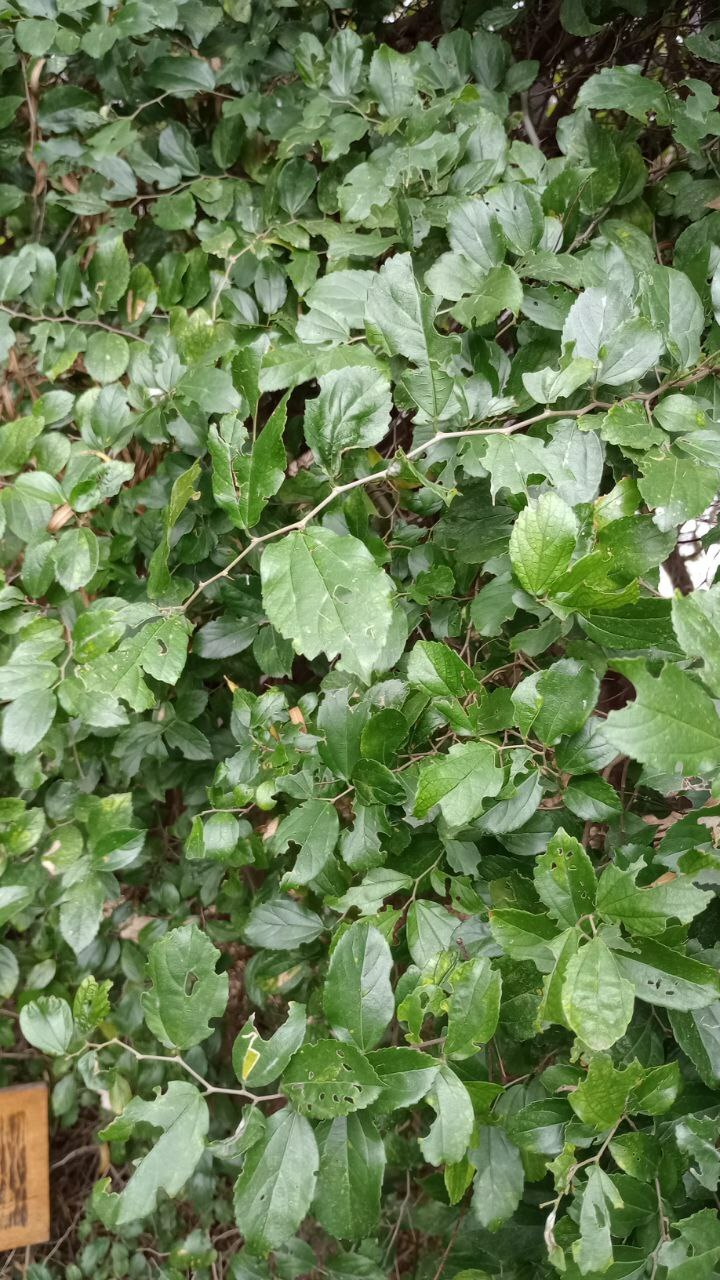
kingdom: Plantae
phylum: Tracheophyta
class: Magnoliopsida
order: Rosales
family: Cannabaceae
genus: Celtis
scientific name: Celtis iguanaea
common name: Iguana hackberry
